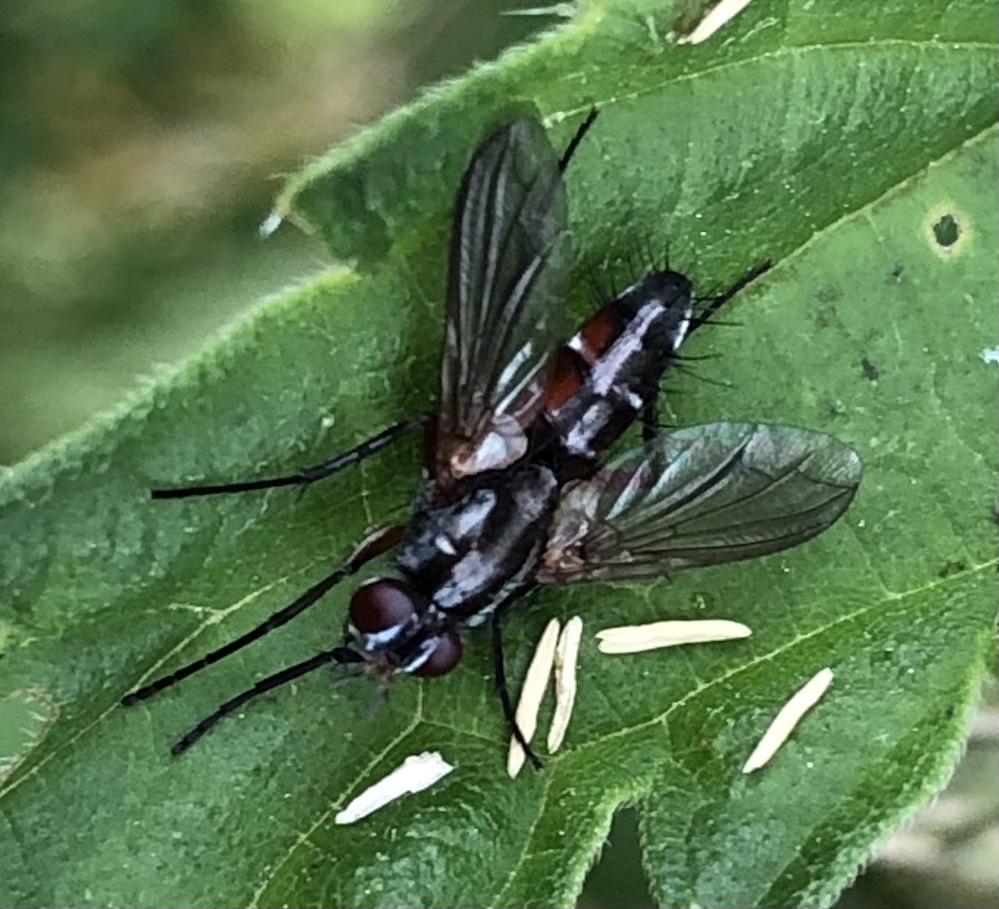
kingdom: Animalia
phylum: Arthropoda
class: Insecta
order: Diptera
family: Tachinidae
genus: Mintho
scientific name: Mintho rufiventris
